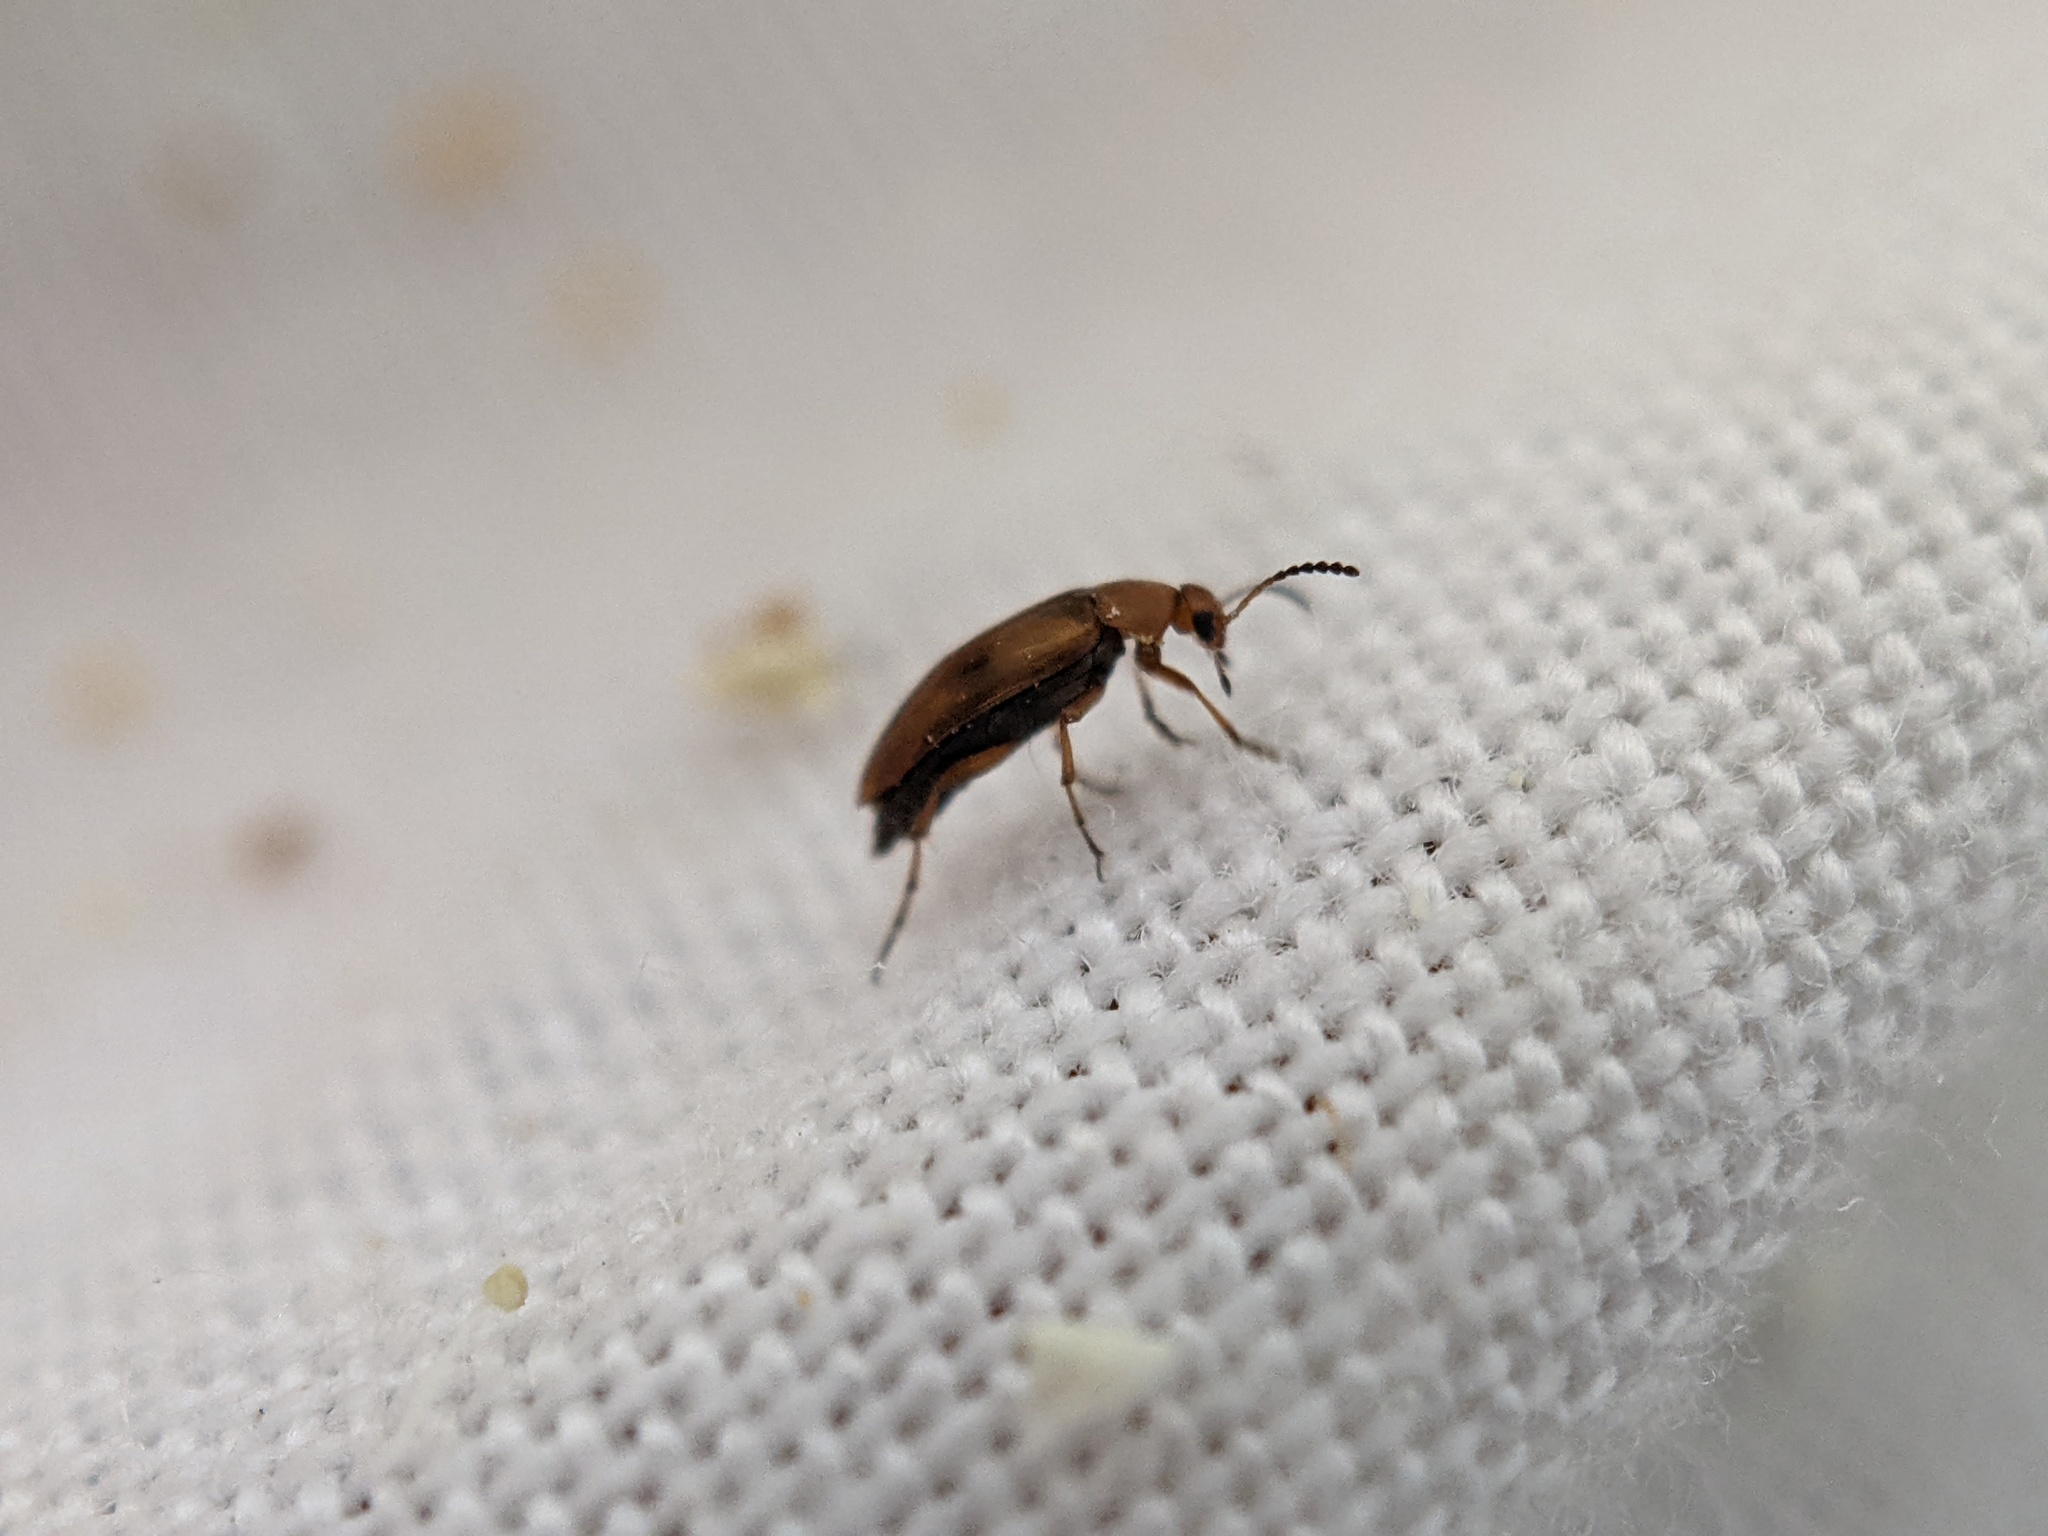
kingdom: Animalia
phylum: Arthropoda
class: Insecta
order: Coleoptera
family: Scraptiidae
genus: Anaspis
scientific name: Anaspis maculata
